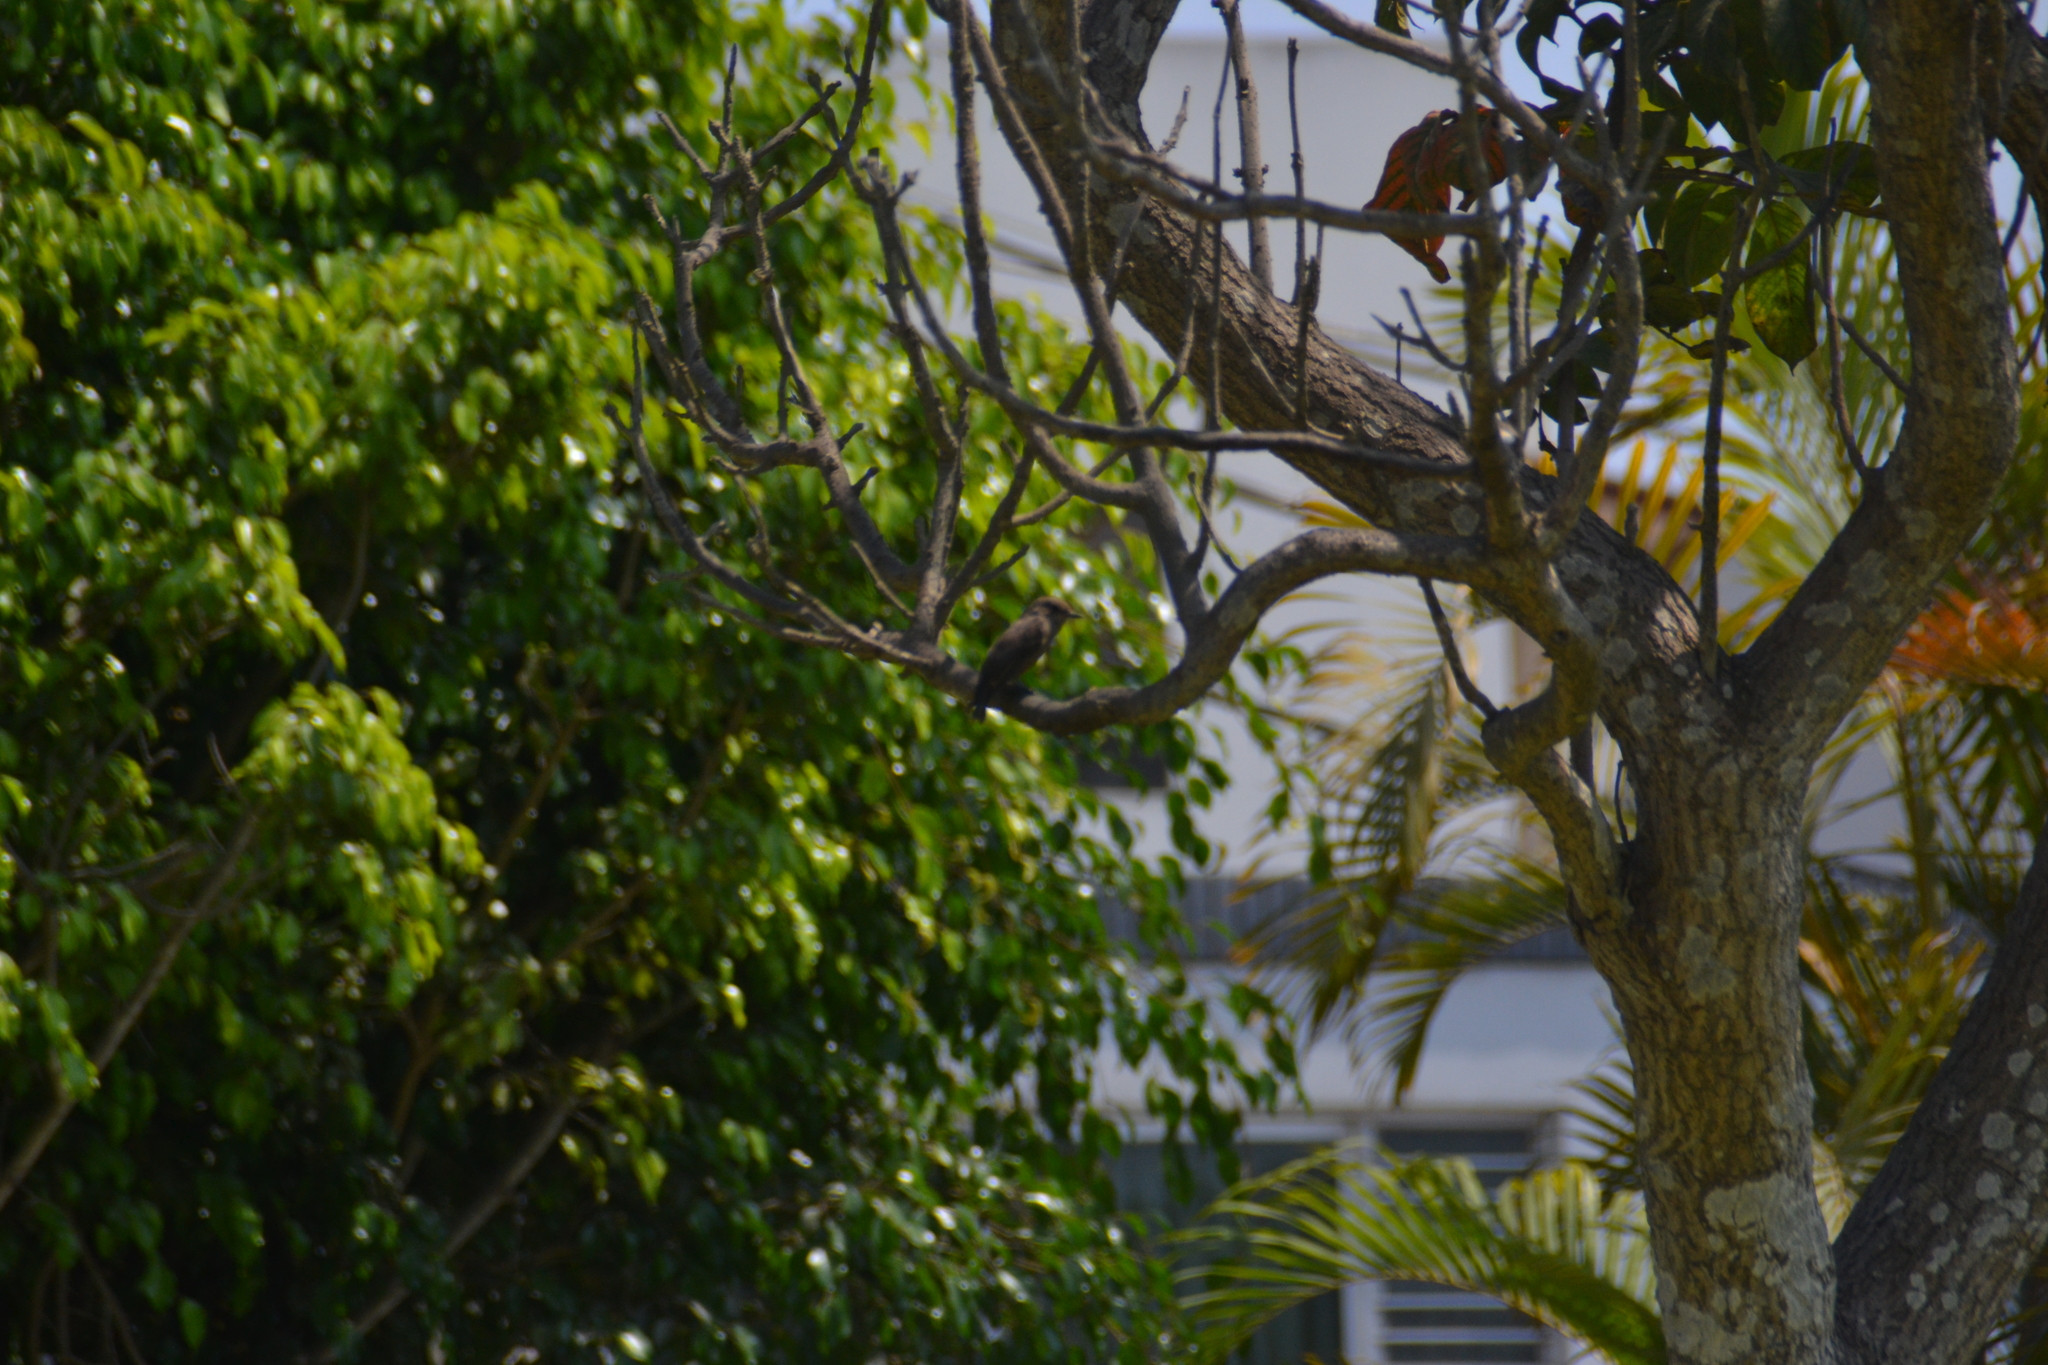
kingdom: Animalia
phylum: Chordata
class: Aves
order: Passeriformes
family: Tyrannidae
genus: Pyrocephalus
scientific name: Pyrocephalus rubinus
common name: Vermilion flycatcher
